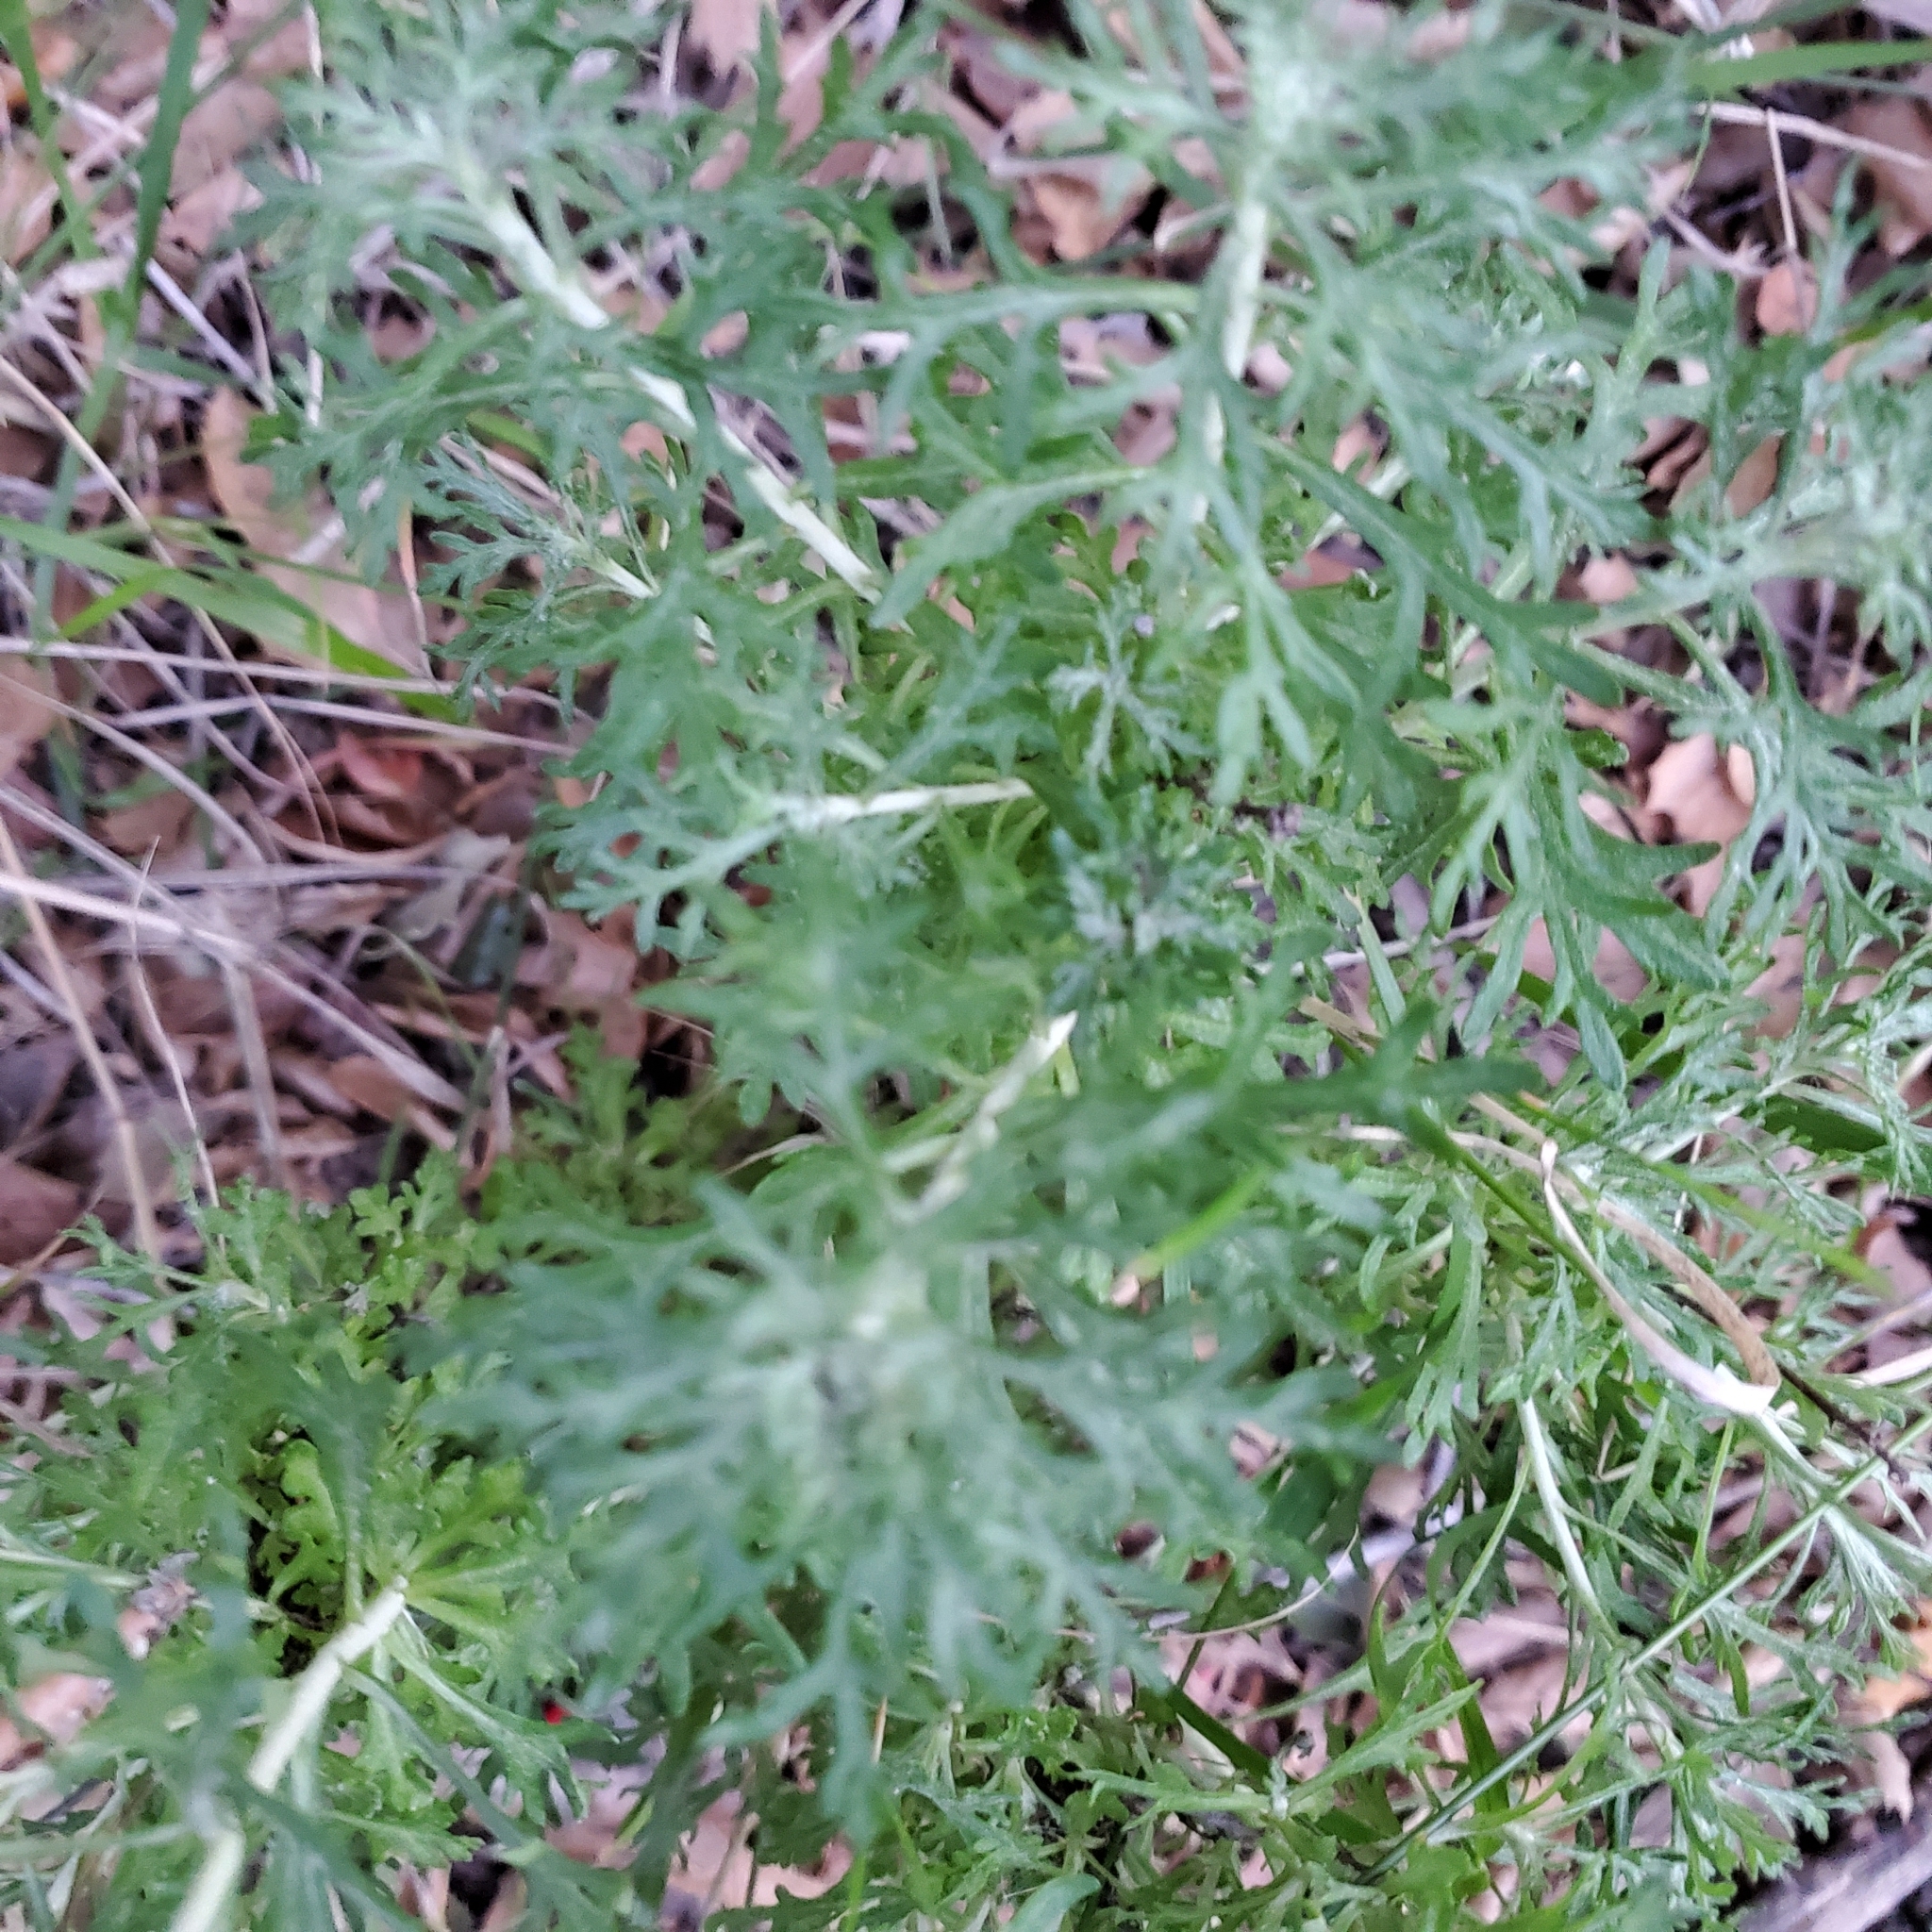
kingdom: Plantae
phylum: Tracheophyta
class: Magnoliopsida
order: Asterales
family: Asteraceae
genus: Eriophyllum
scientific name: Eriophyllum confertiflorum
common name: Golden-yarrow
